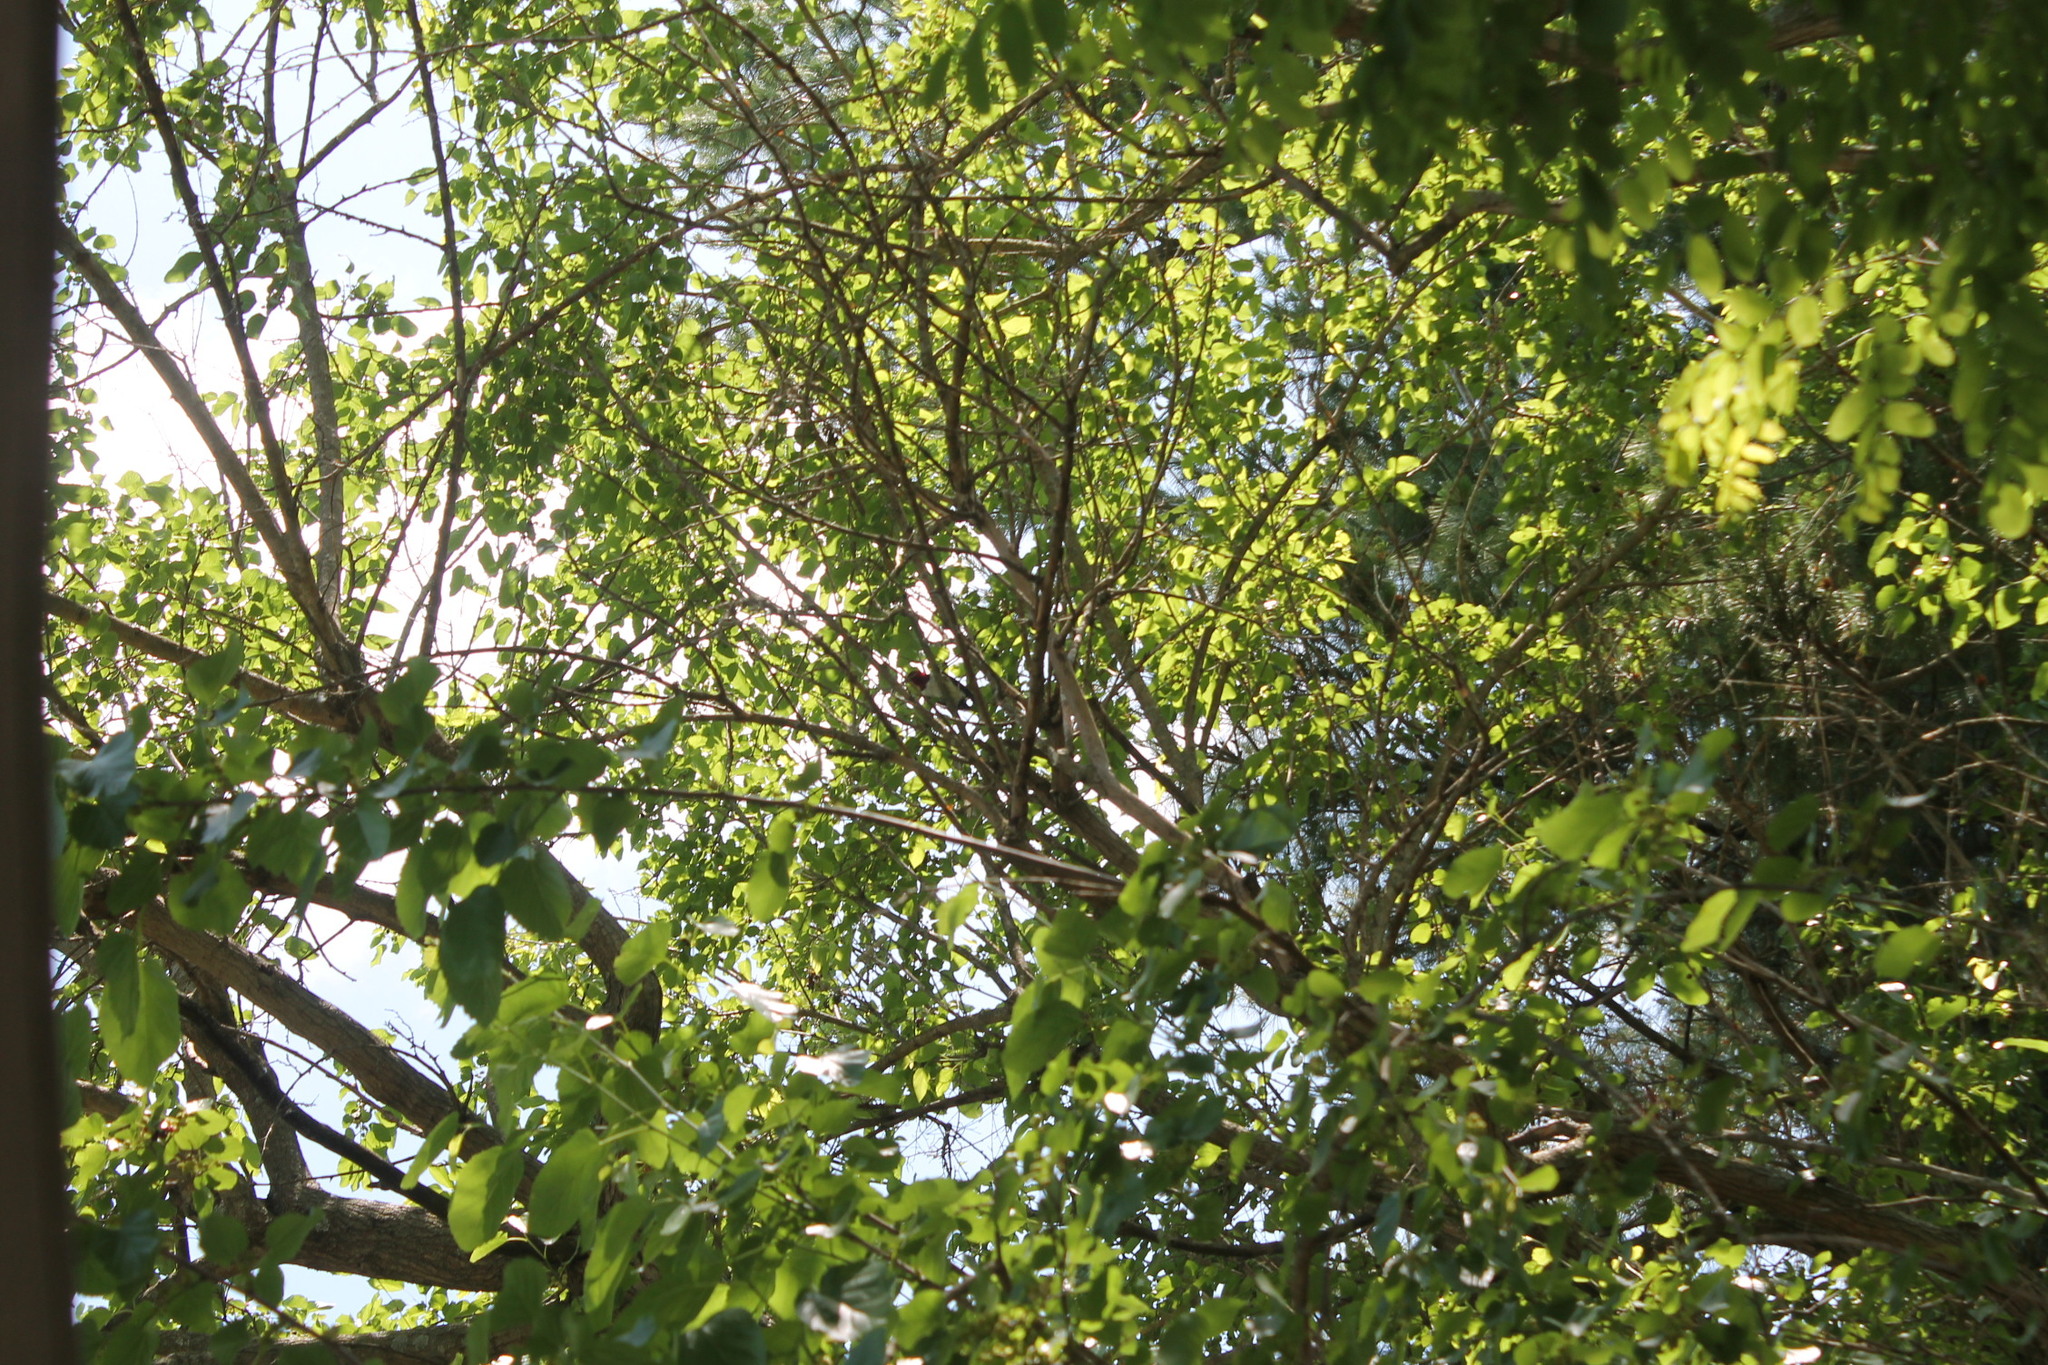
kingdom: Animalia
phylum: Chordata
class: Aves
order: Piciformes
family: Picidae
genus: Melanerpes
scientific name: Melanerpes erythrocephalus
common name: Red-headed woodpecker
